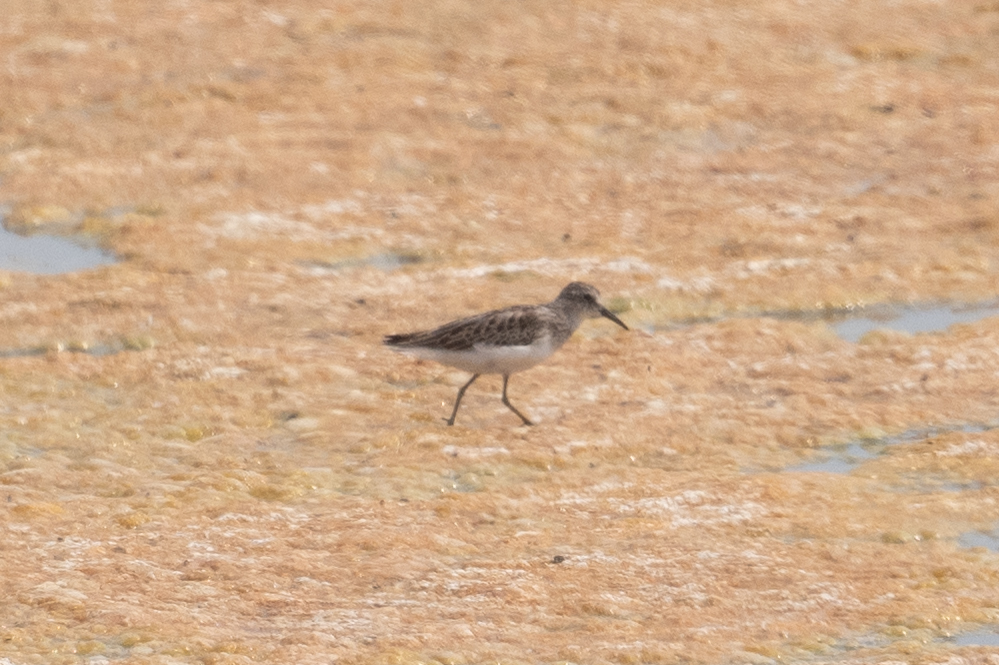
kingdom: Animalia
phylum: Chordata
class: Aves
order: Charadriiformes
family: Scolopacidae
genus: Calidris
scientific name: Calidris minutilla
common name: Least sandpiper
